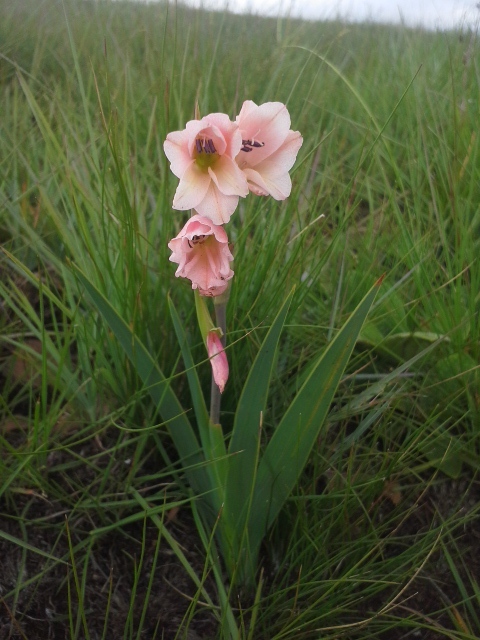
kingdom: Plantae
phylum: Tracheophyta
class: Liliopsida
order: Asparagales
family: Iridaceae
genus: Gladiolus
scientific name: Gladiolus exiguus
